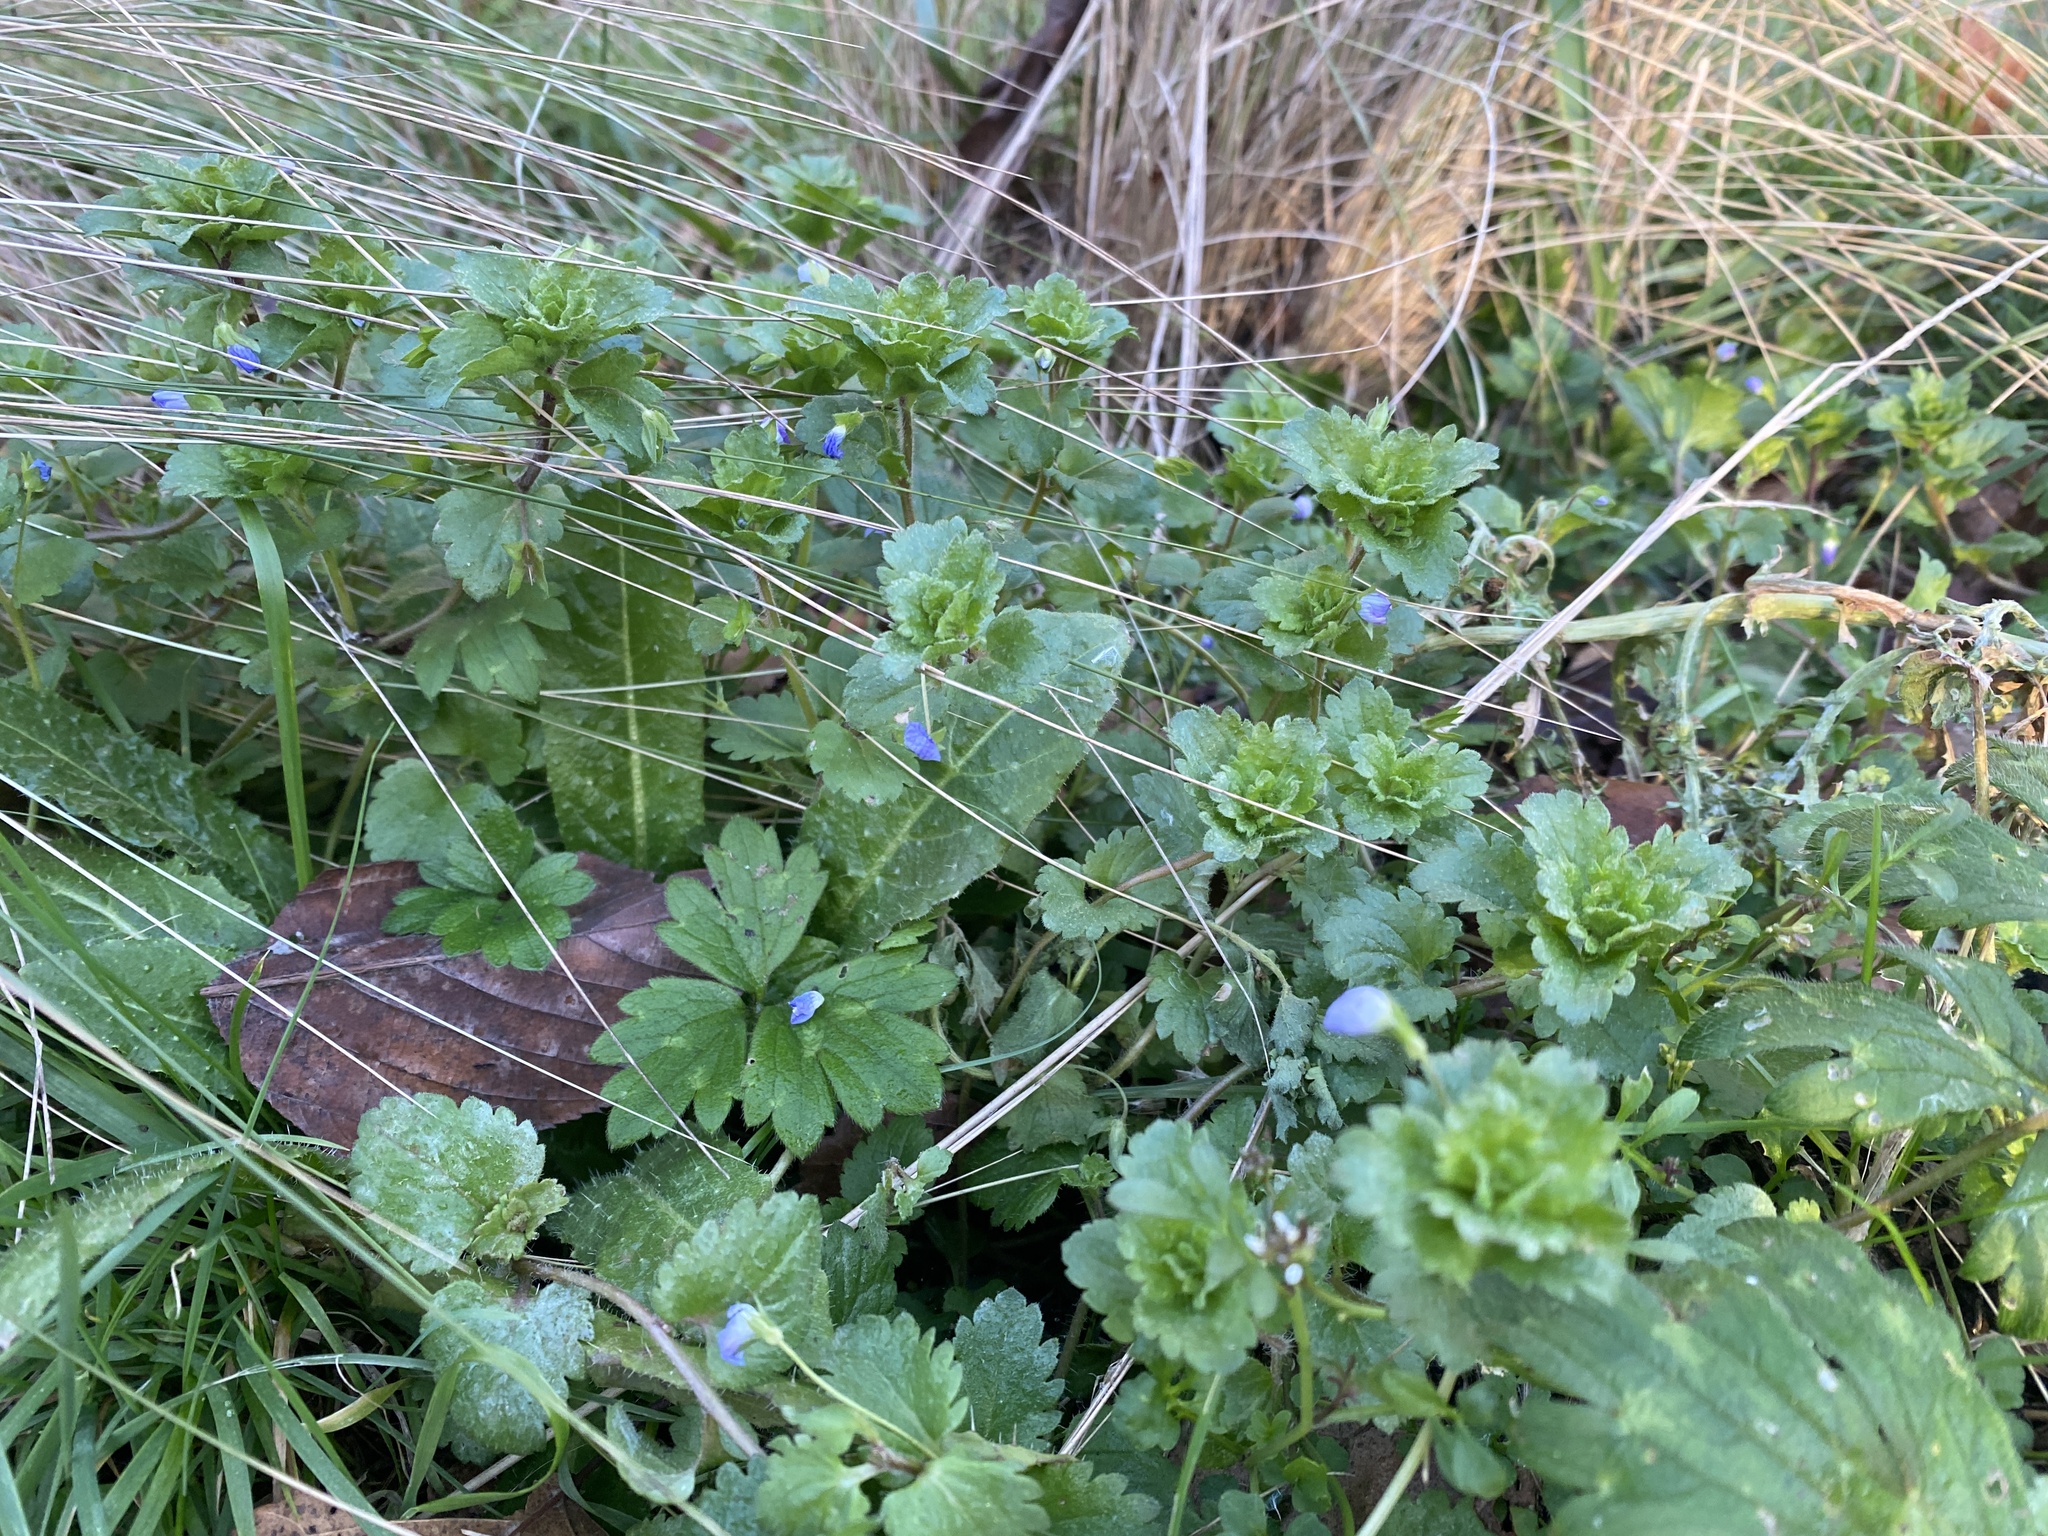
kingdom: Plantae
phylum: Tracheophyta
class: Magnoliopsida
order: Lamiales
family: Plantaginaceae
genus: Veronica
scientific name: Veronica persica
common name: Common field-speedwell
